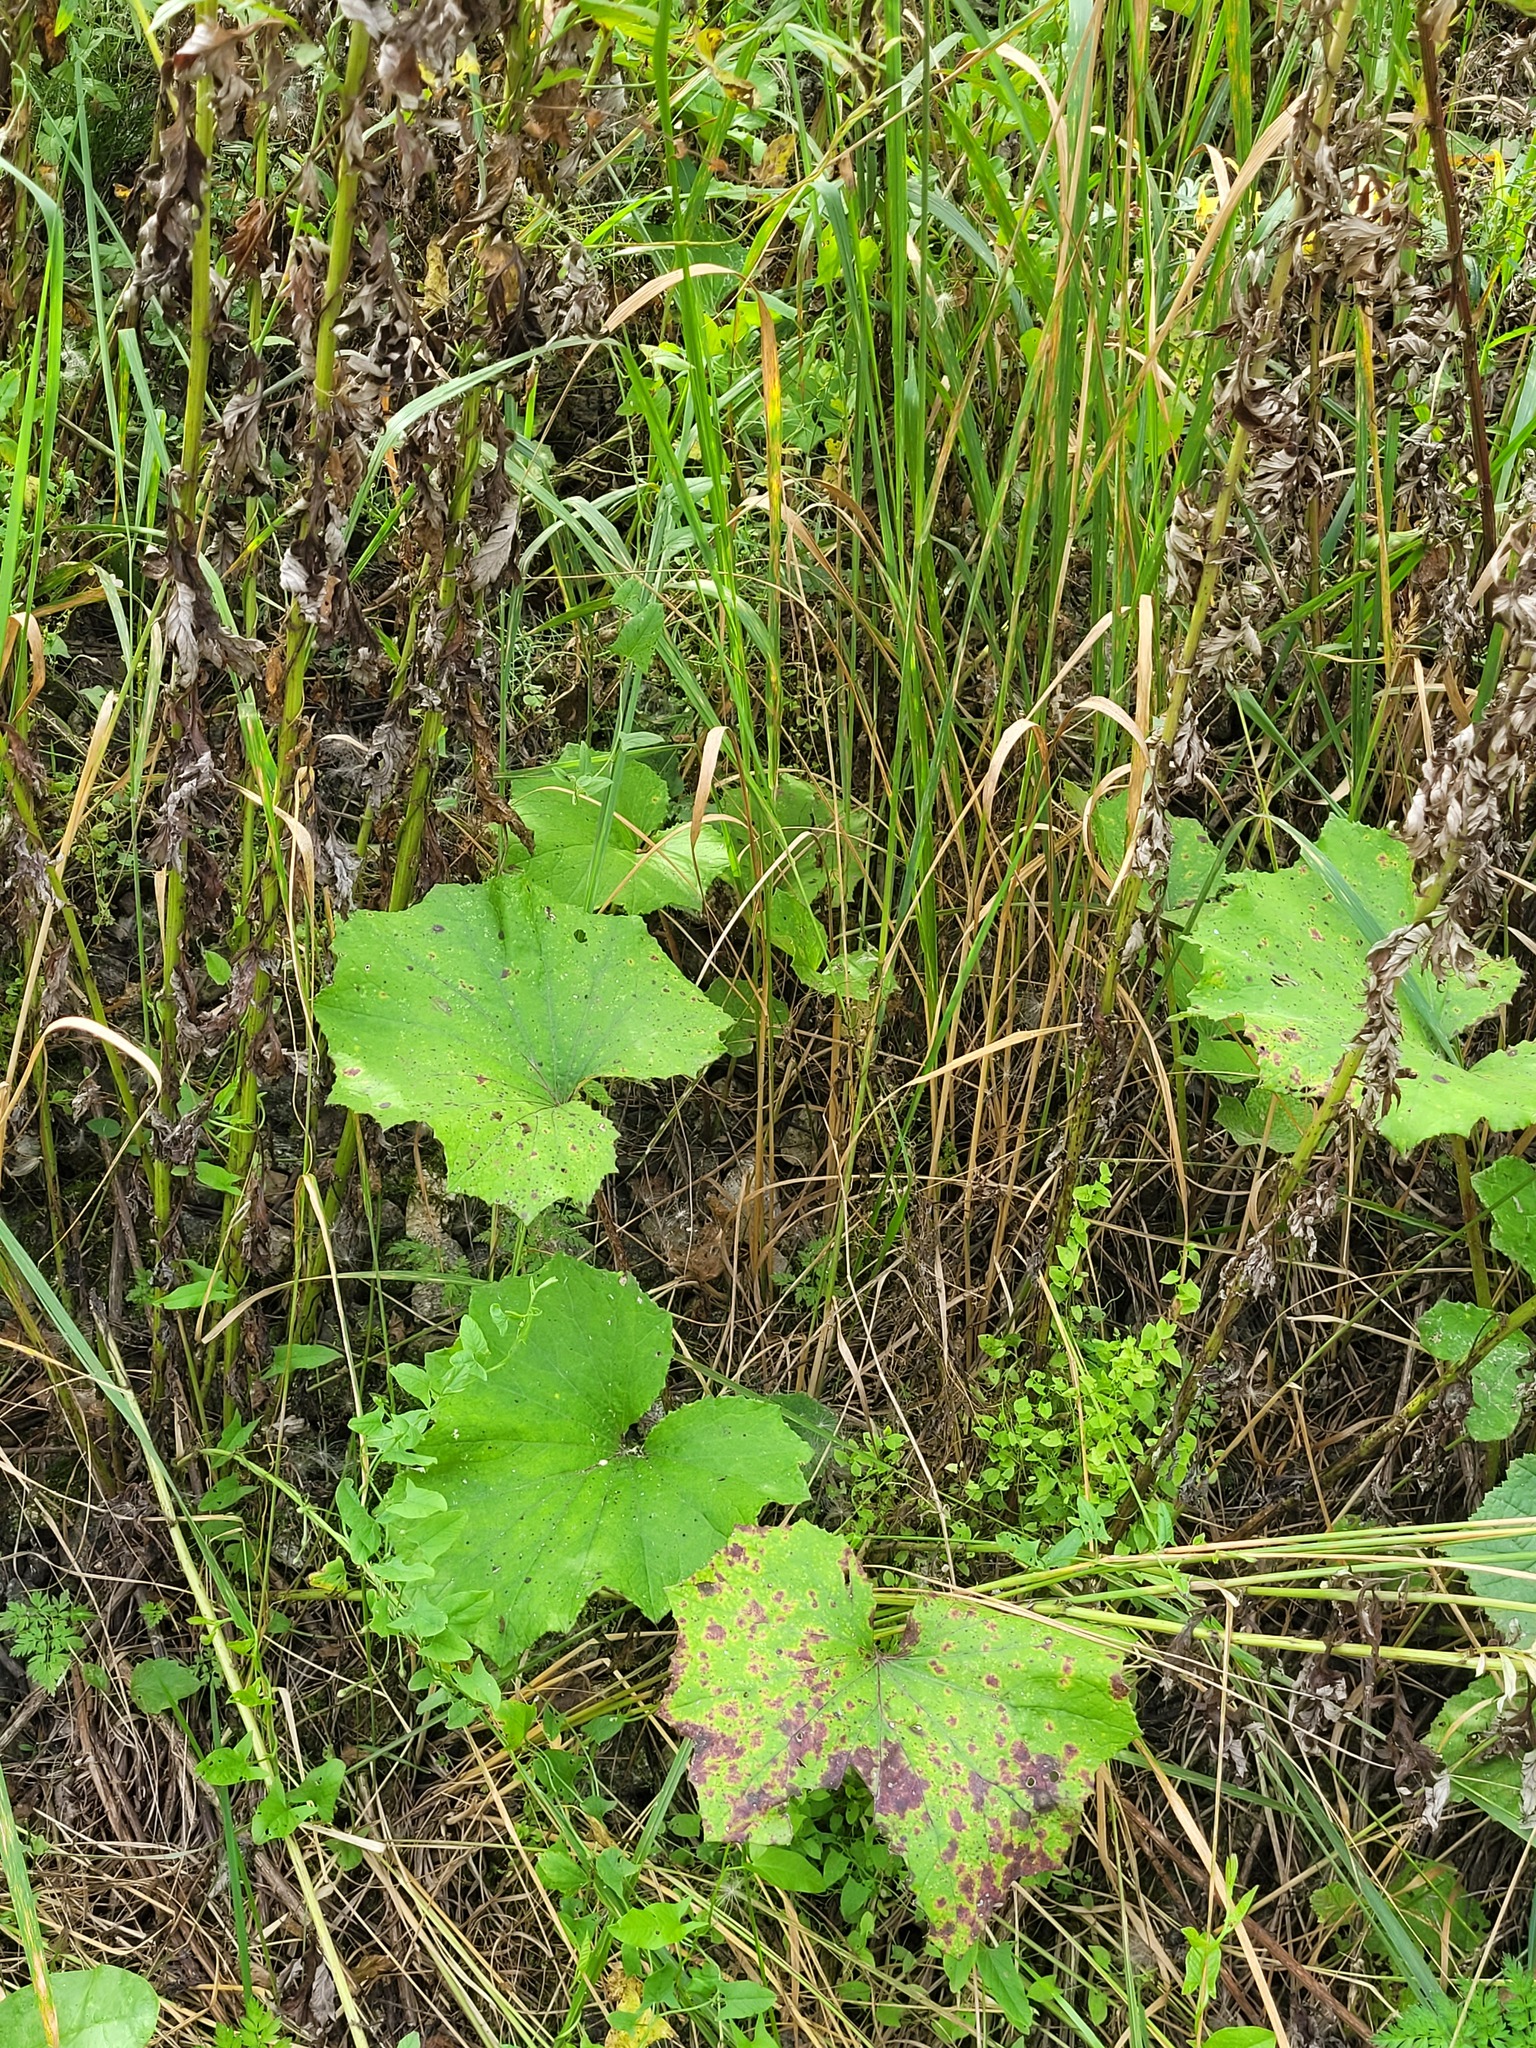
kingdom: Plantae
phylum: Tracheophyta
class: Magnoliopsida
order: Asterales
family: Asteraceae
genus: Tussilago
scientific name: Tussilago farfara
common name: Coltsfoot
